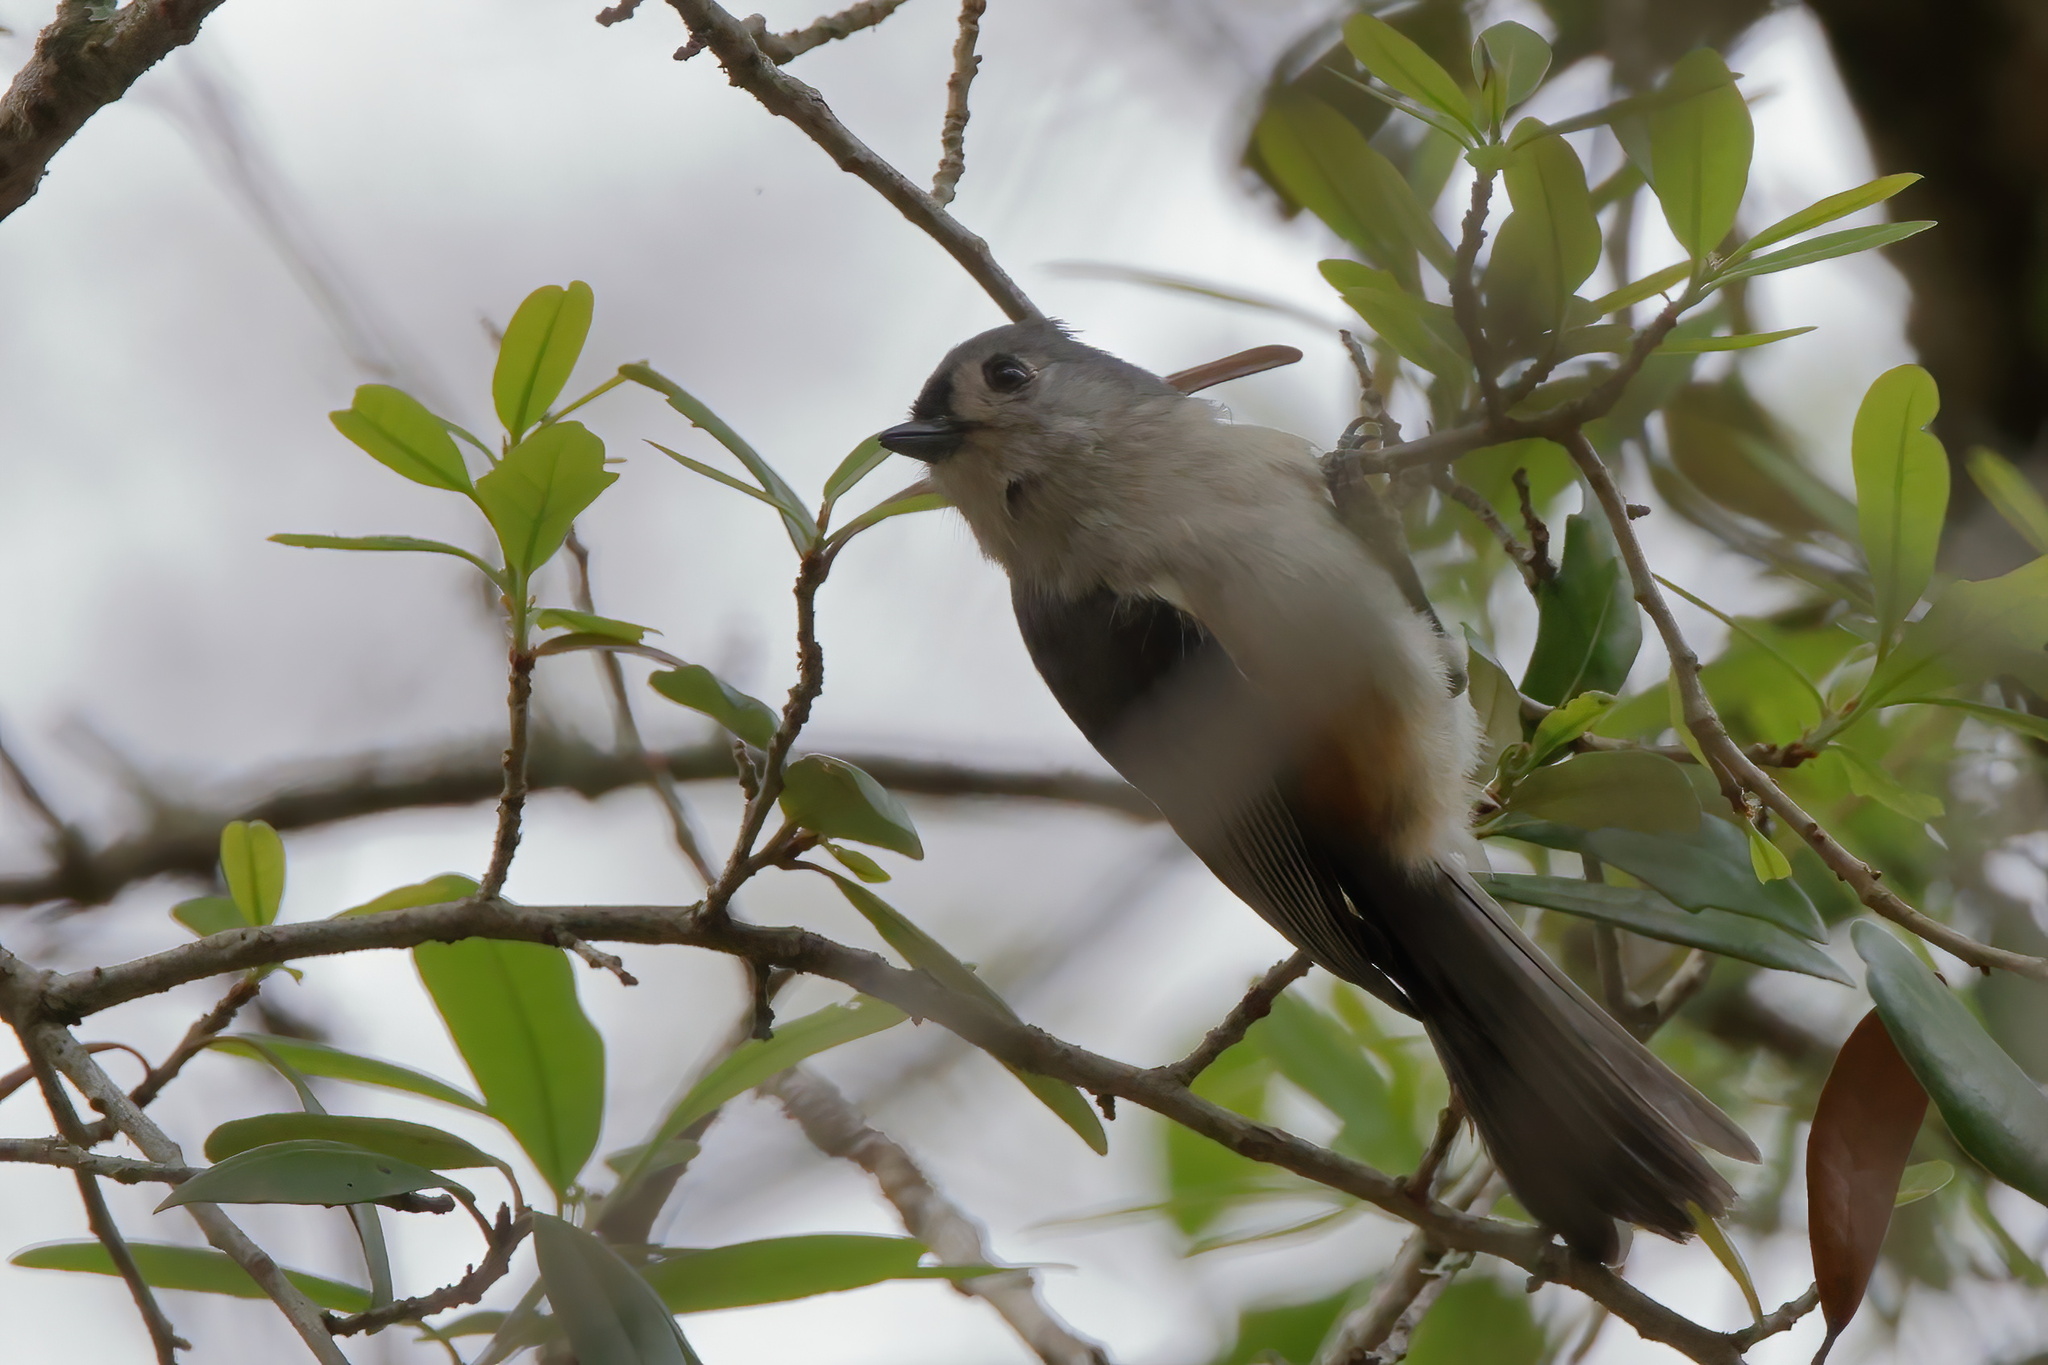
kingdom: Animalia
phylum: Chordata
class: Aves
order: Passeriformes
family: Paridae
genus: Baeolophus
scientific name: Baeolophus bicolor
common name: Tufted titmouse
